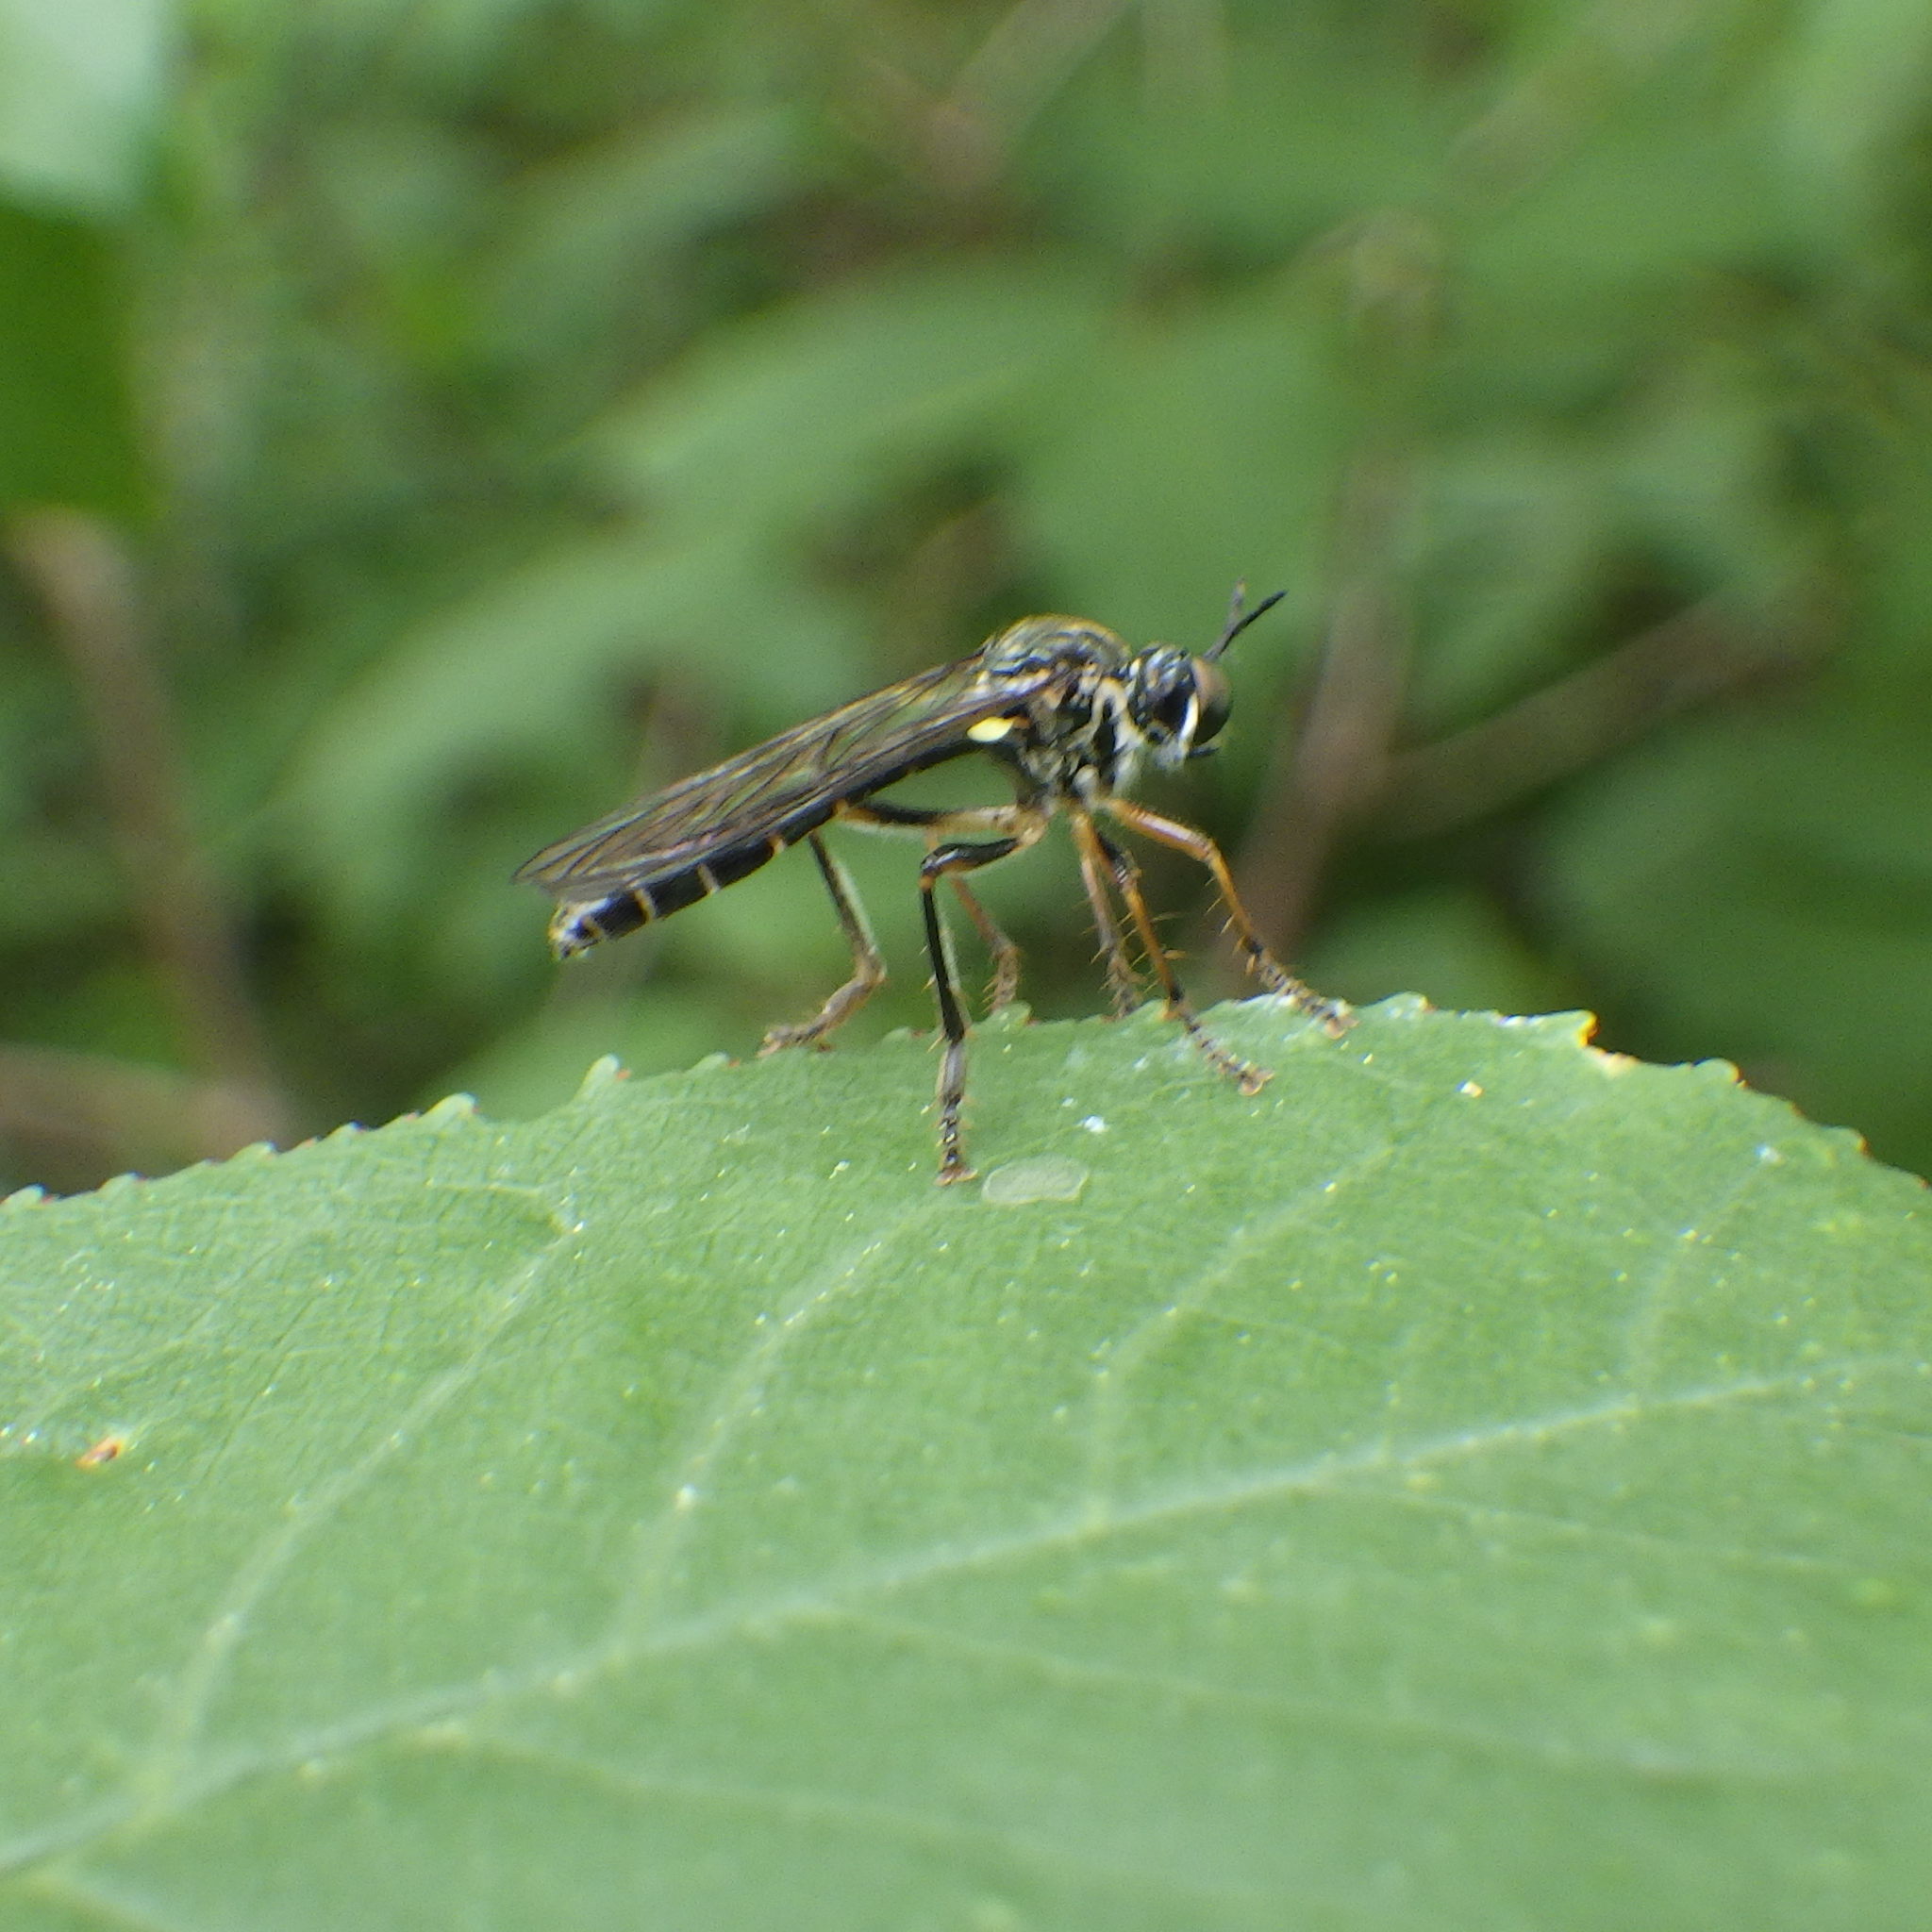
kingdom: Animalia
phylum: Arthropoda
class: Insecta
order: Diptera
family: Asilidae
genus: Dioctria
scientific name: Dioctria hyalipennis
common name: Stripe-legged robberfly
